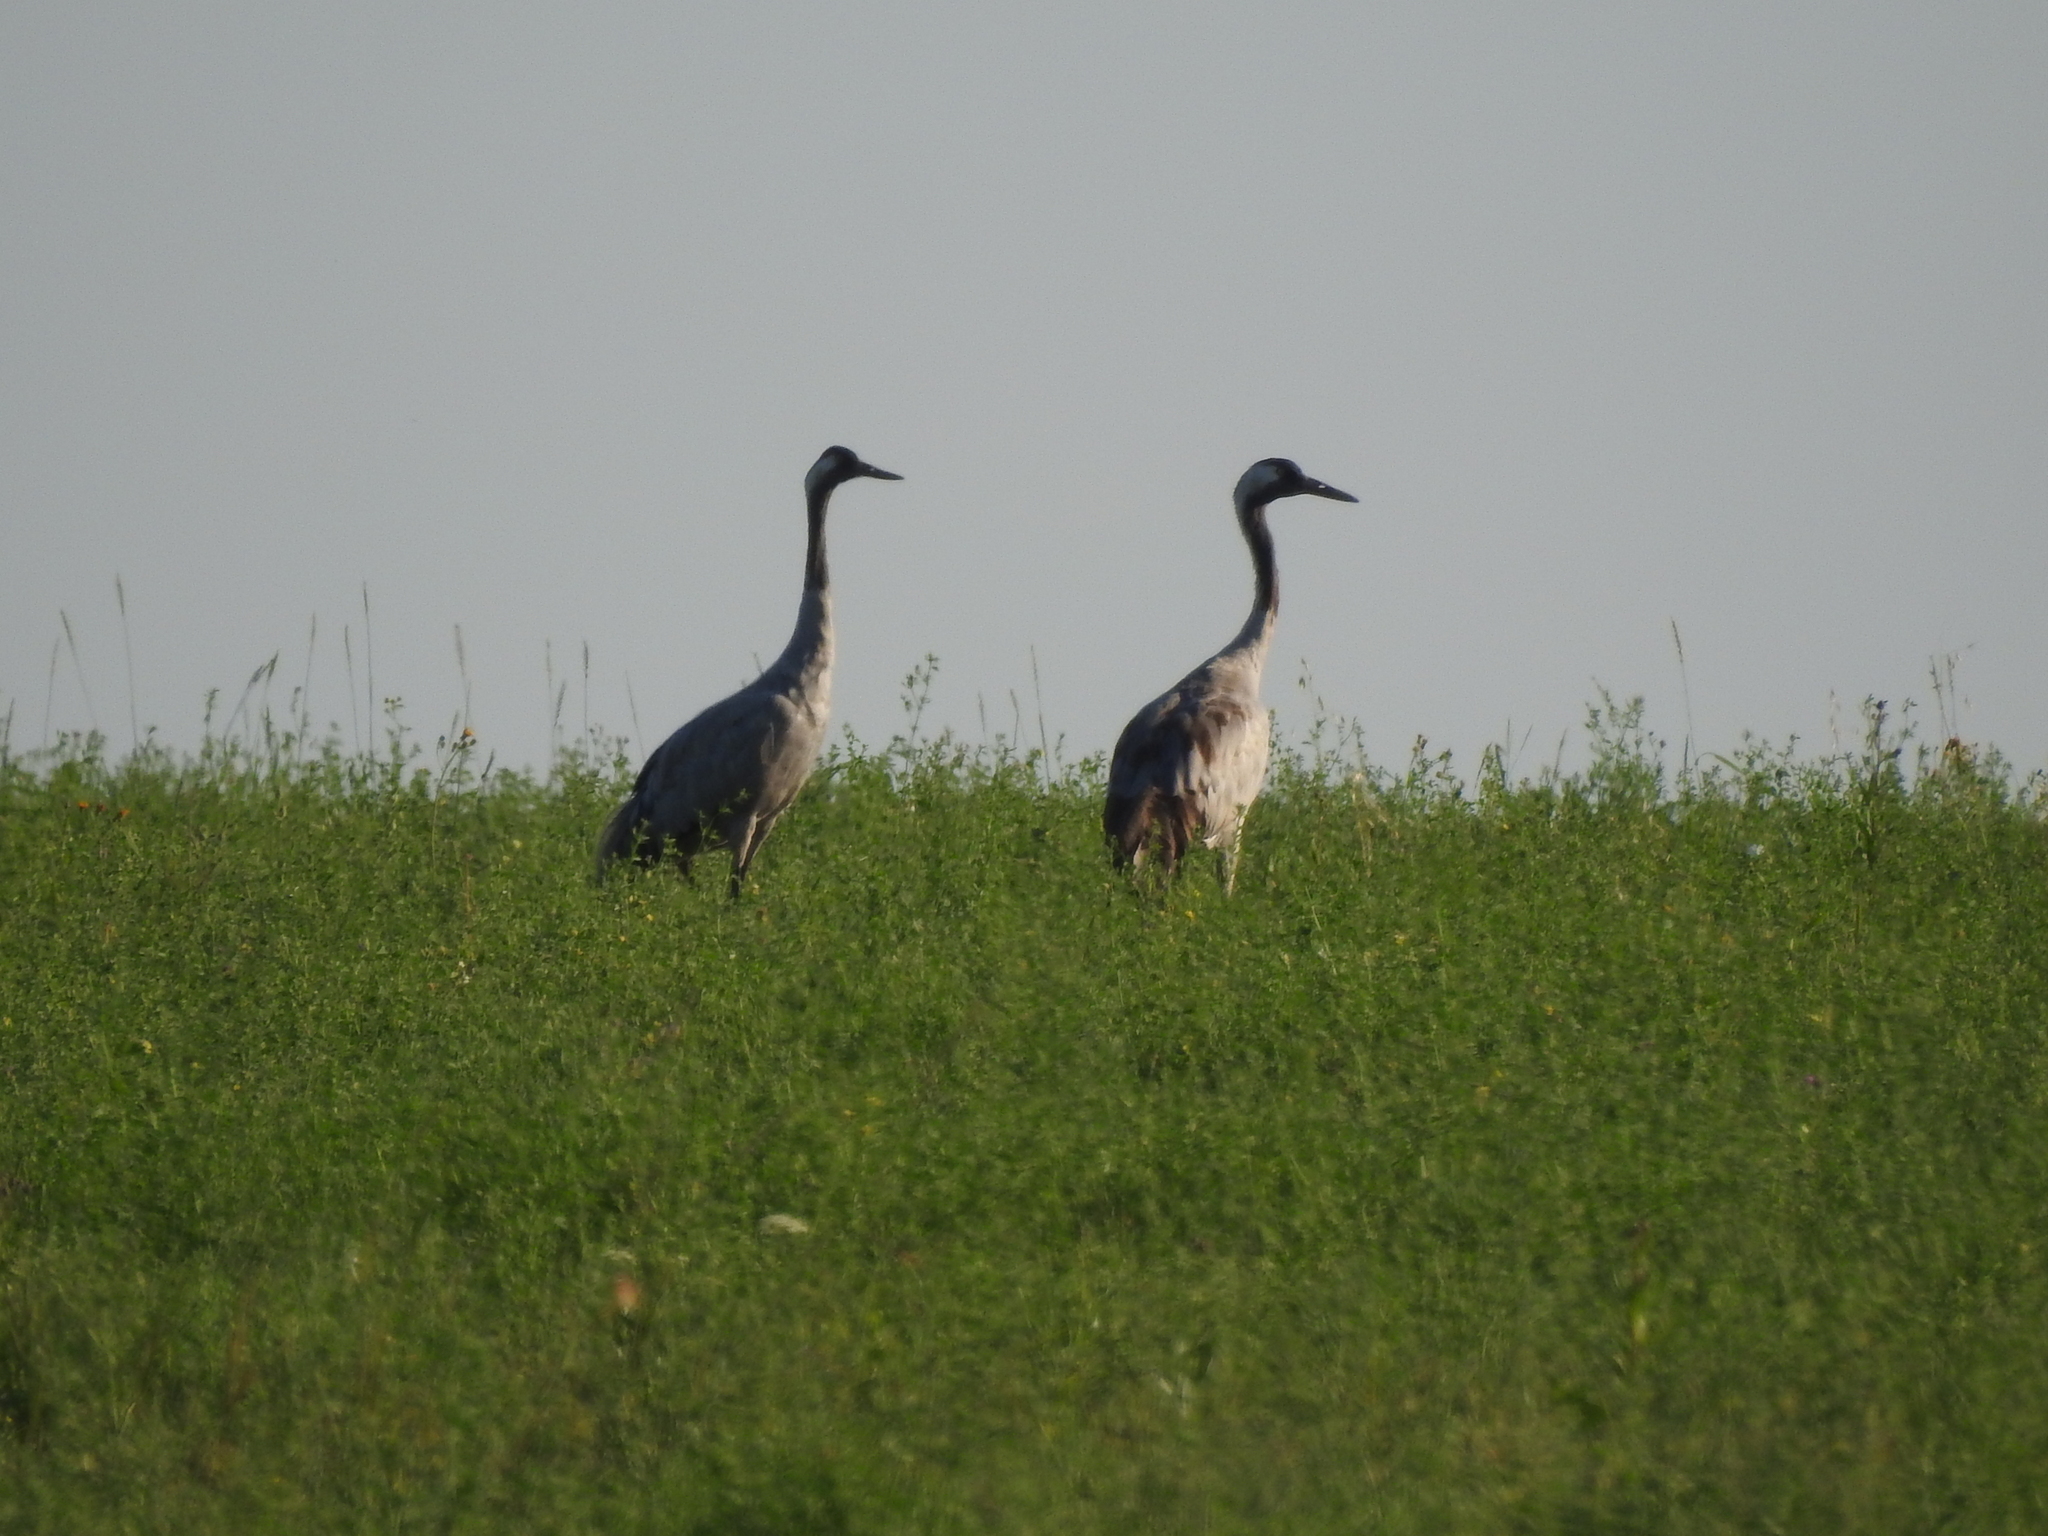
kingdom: Animalia
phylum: Chordata
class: Aves
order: Gruiformes
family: Gruidae
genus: Grus
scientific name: Grus grus
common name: Common crane
